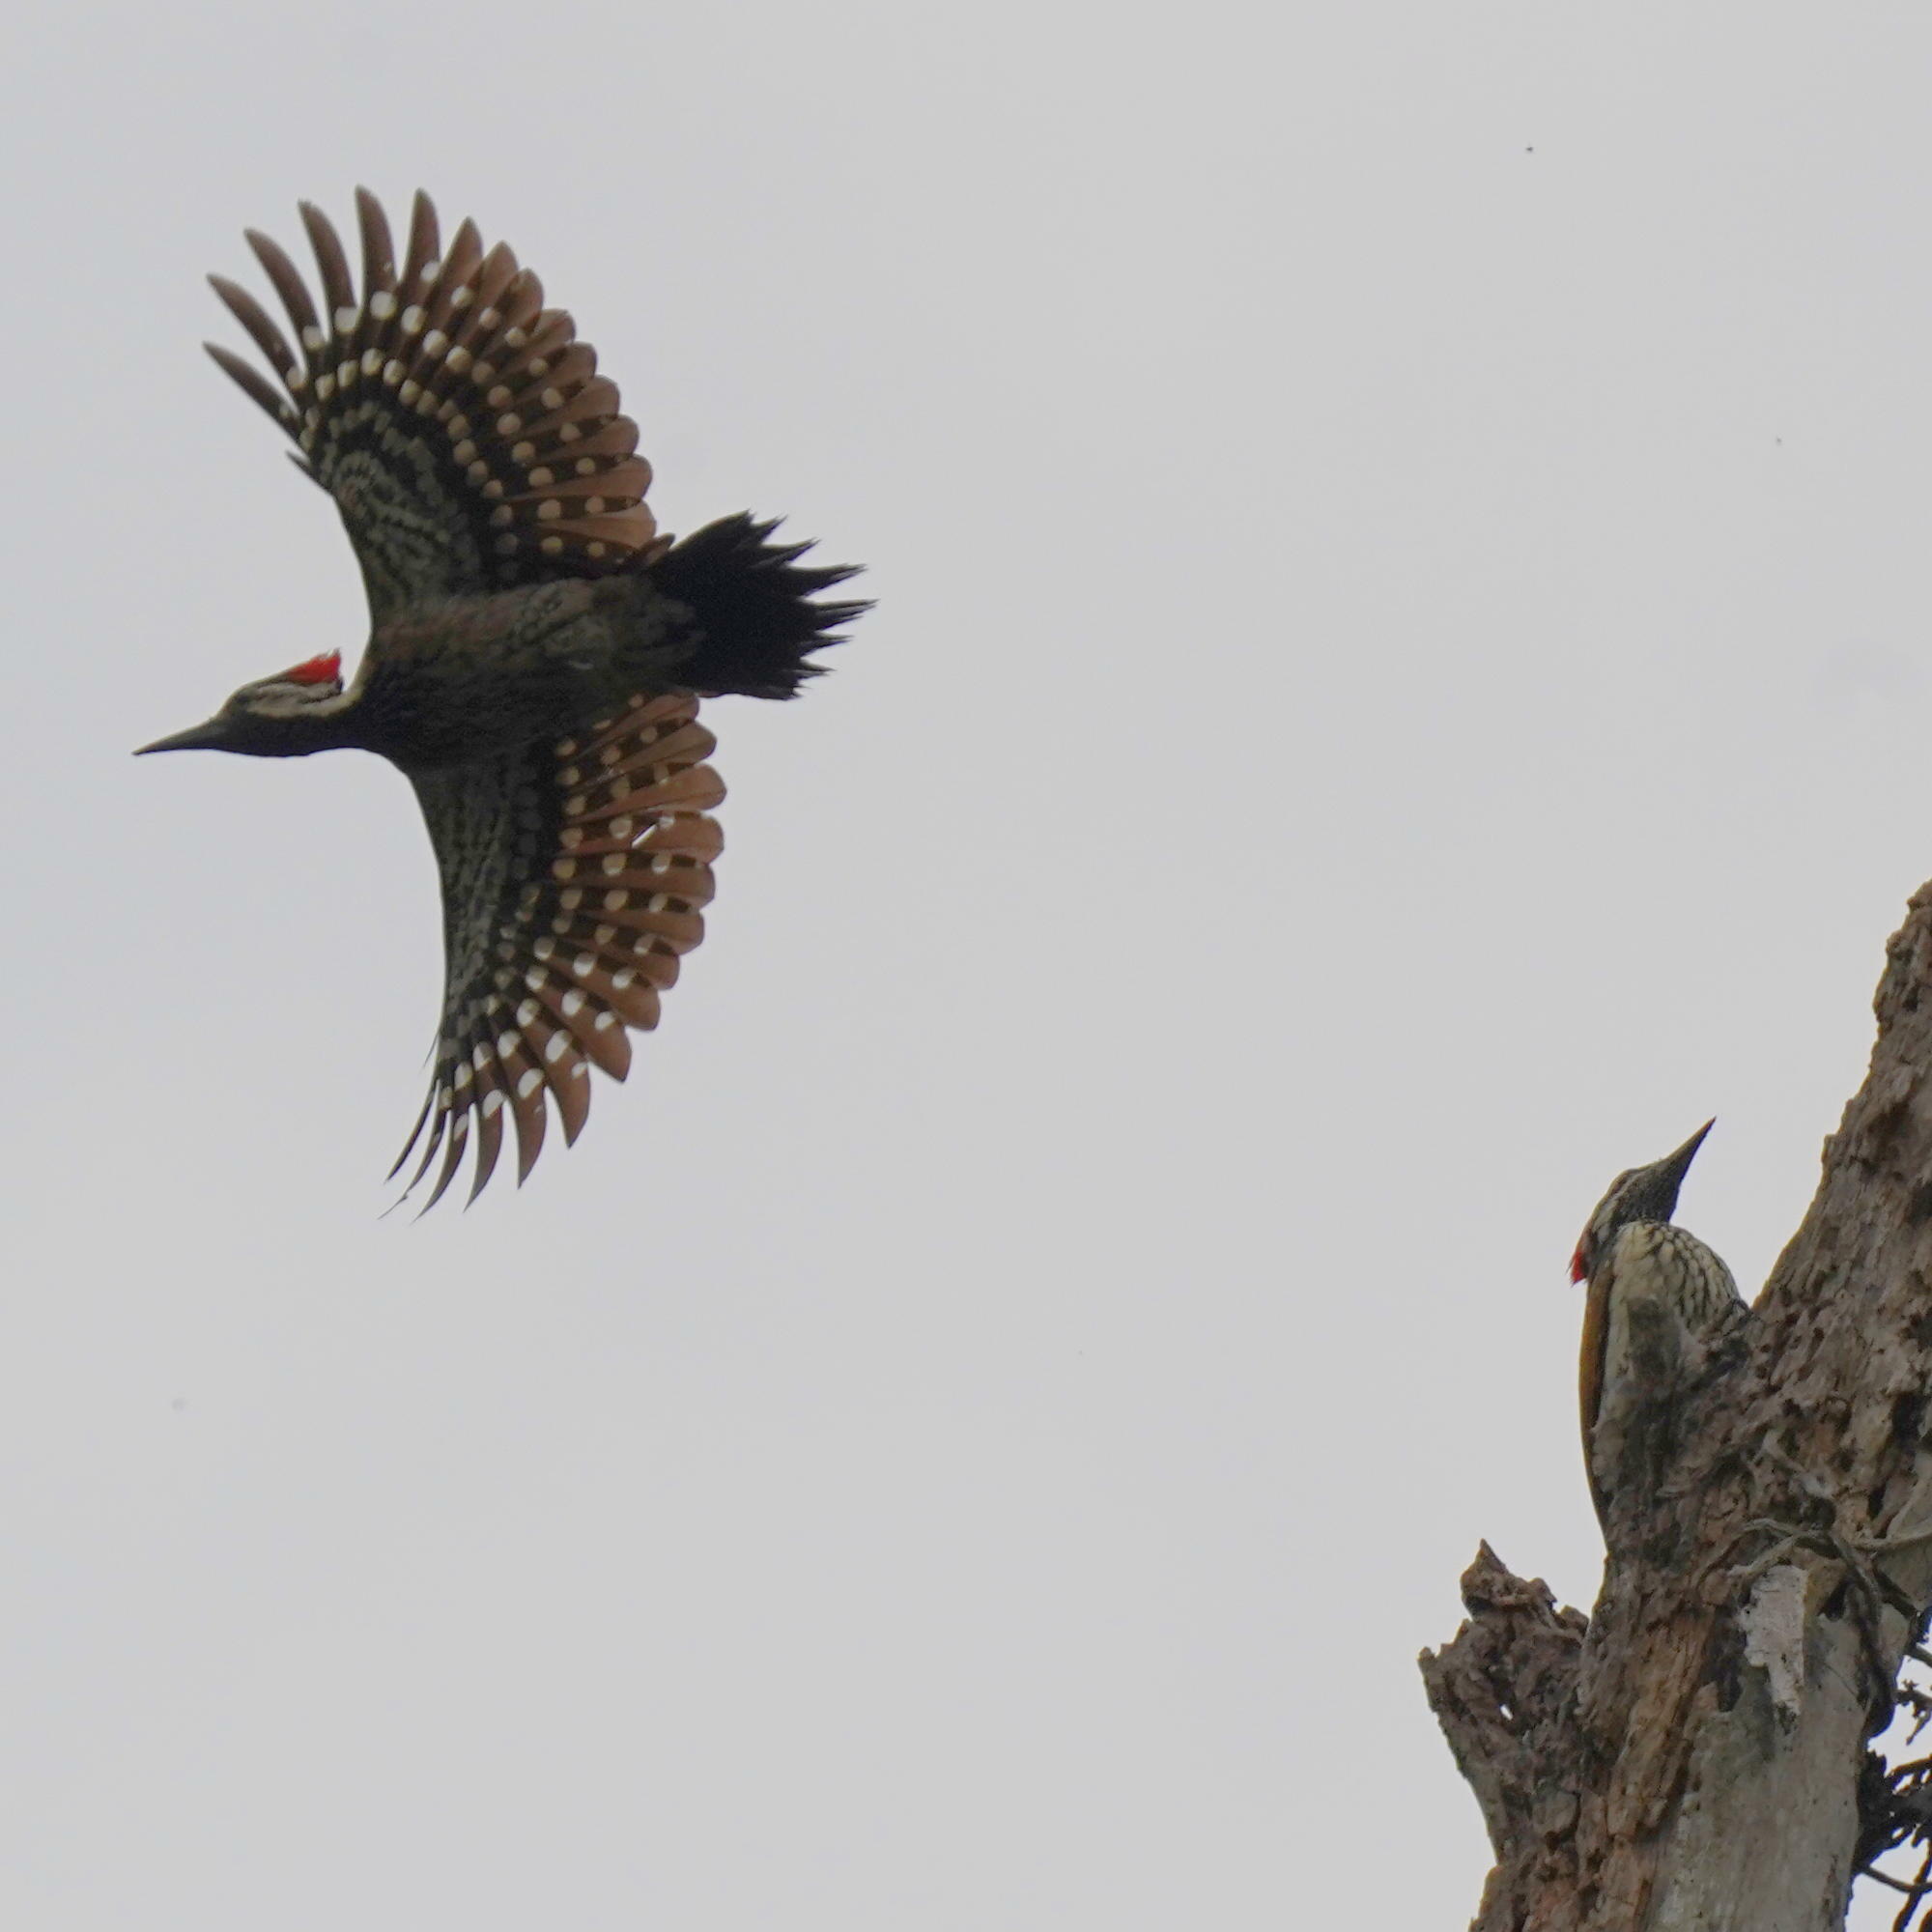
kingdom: Animalia
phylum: Chordata
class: Aves
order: Piciformes
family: Picidae
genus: Dinopium
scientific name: Dinopium benghalense
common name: Black-rumped flameback
